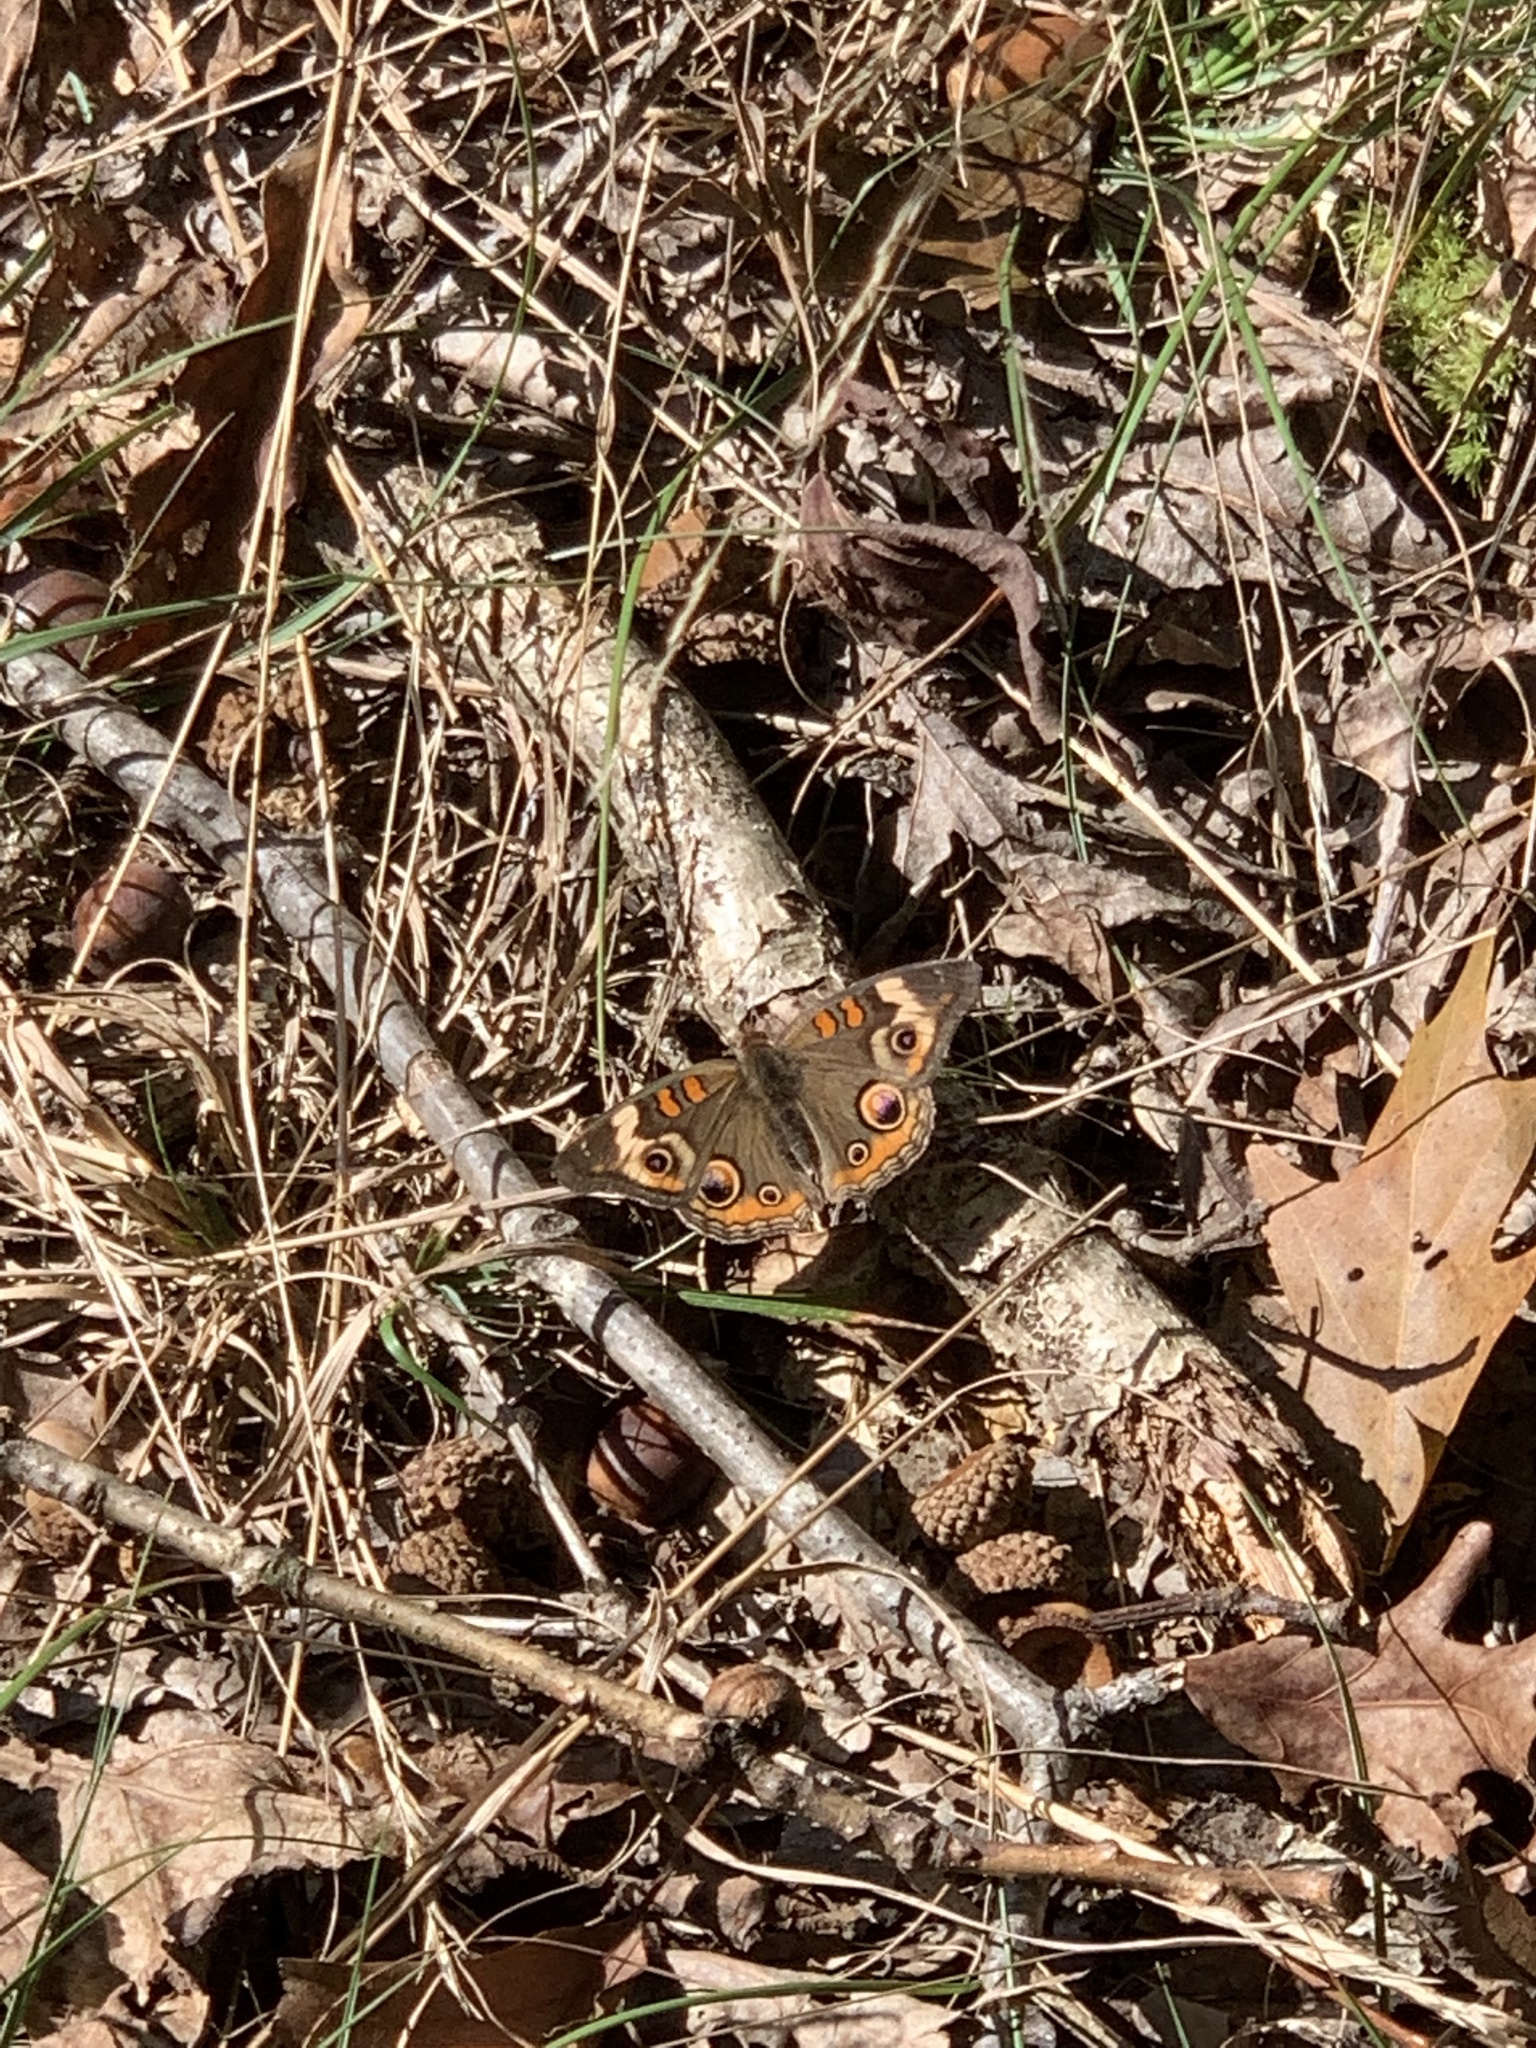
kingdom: Animalia
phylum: Arthropoda
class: Insecta
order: Lepidoptera
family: Nymphalidae
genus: Junonia
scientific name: Junonia coenia
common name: Common buckeye
